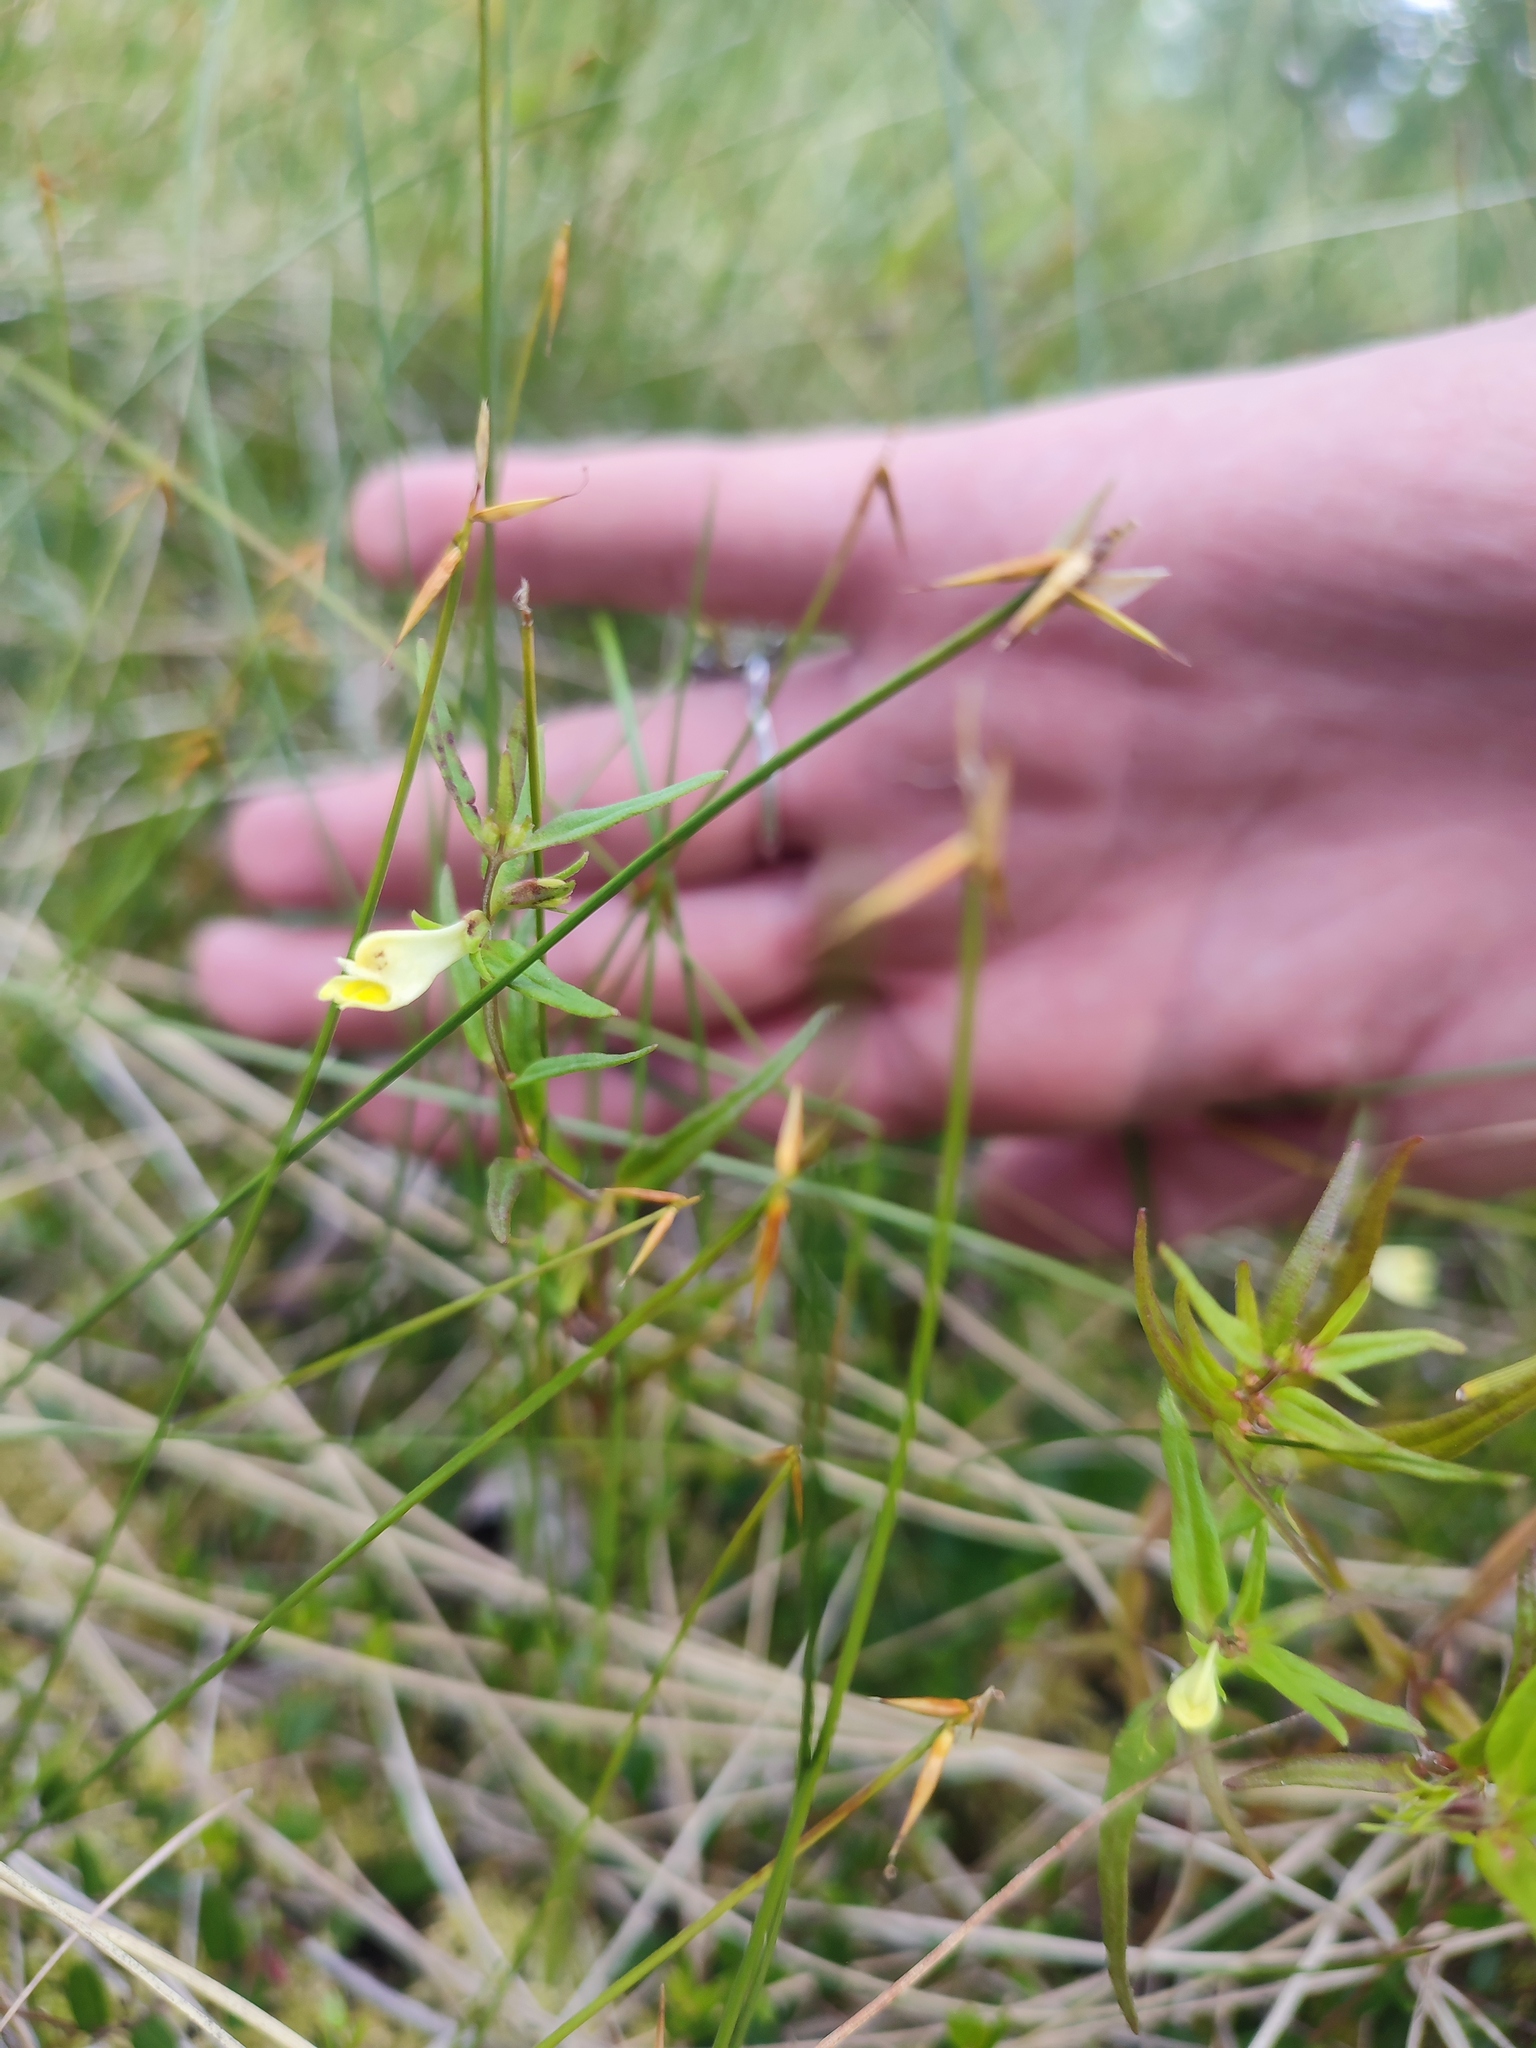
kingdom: Plantae
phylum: Tracheophyta
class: Magnoliopsida
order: Lamiales
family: Orobanchaceae
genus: Melampyrum
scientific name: Melampyrum pratense
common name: Common cow-wheat
